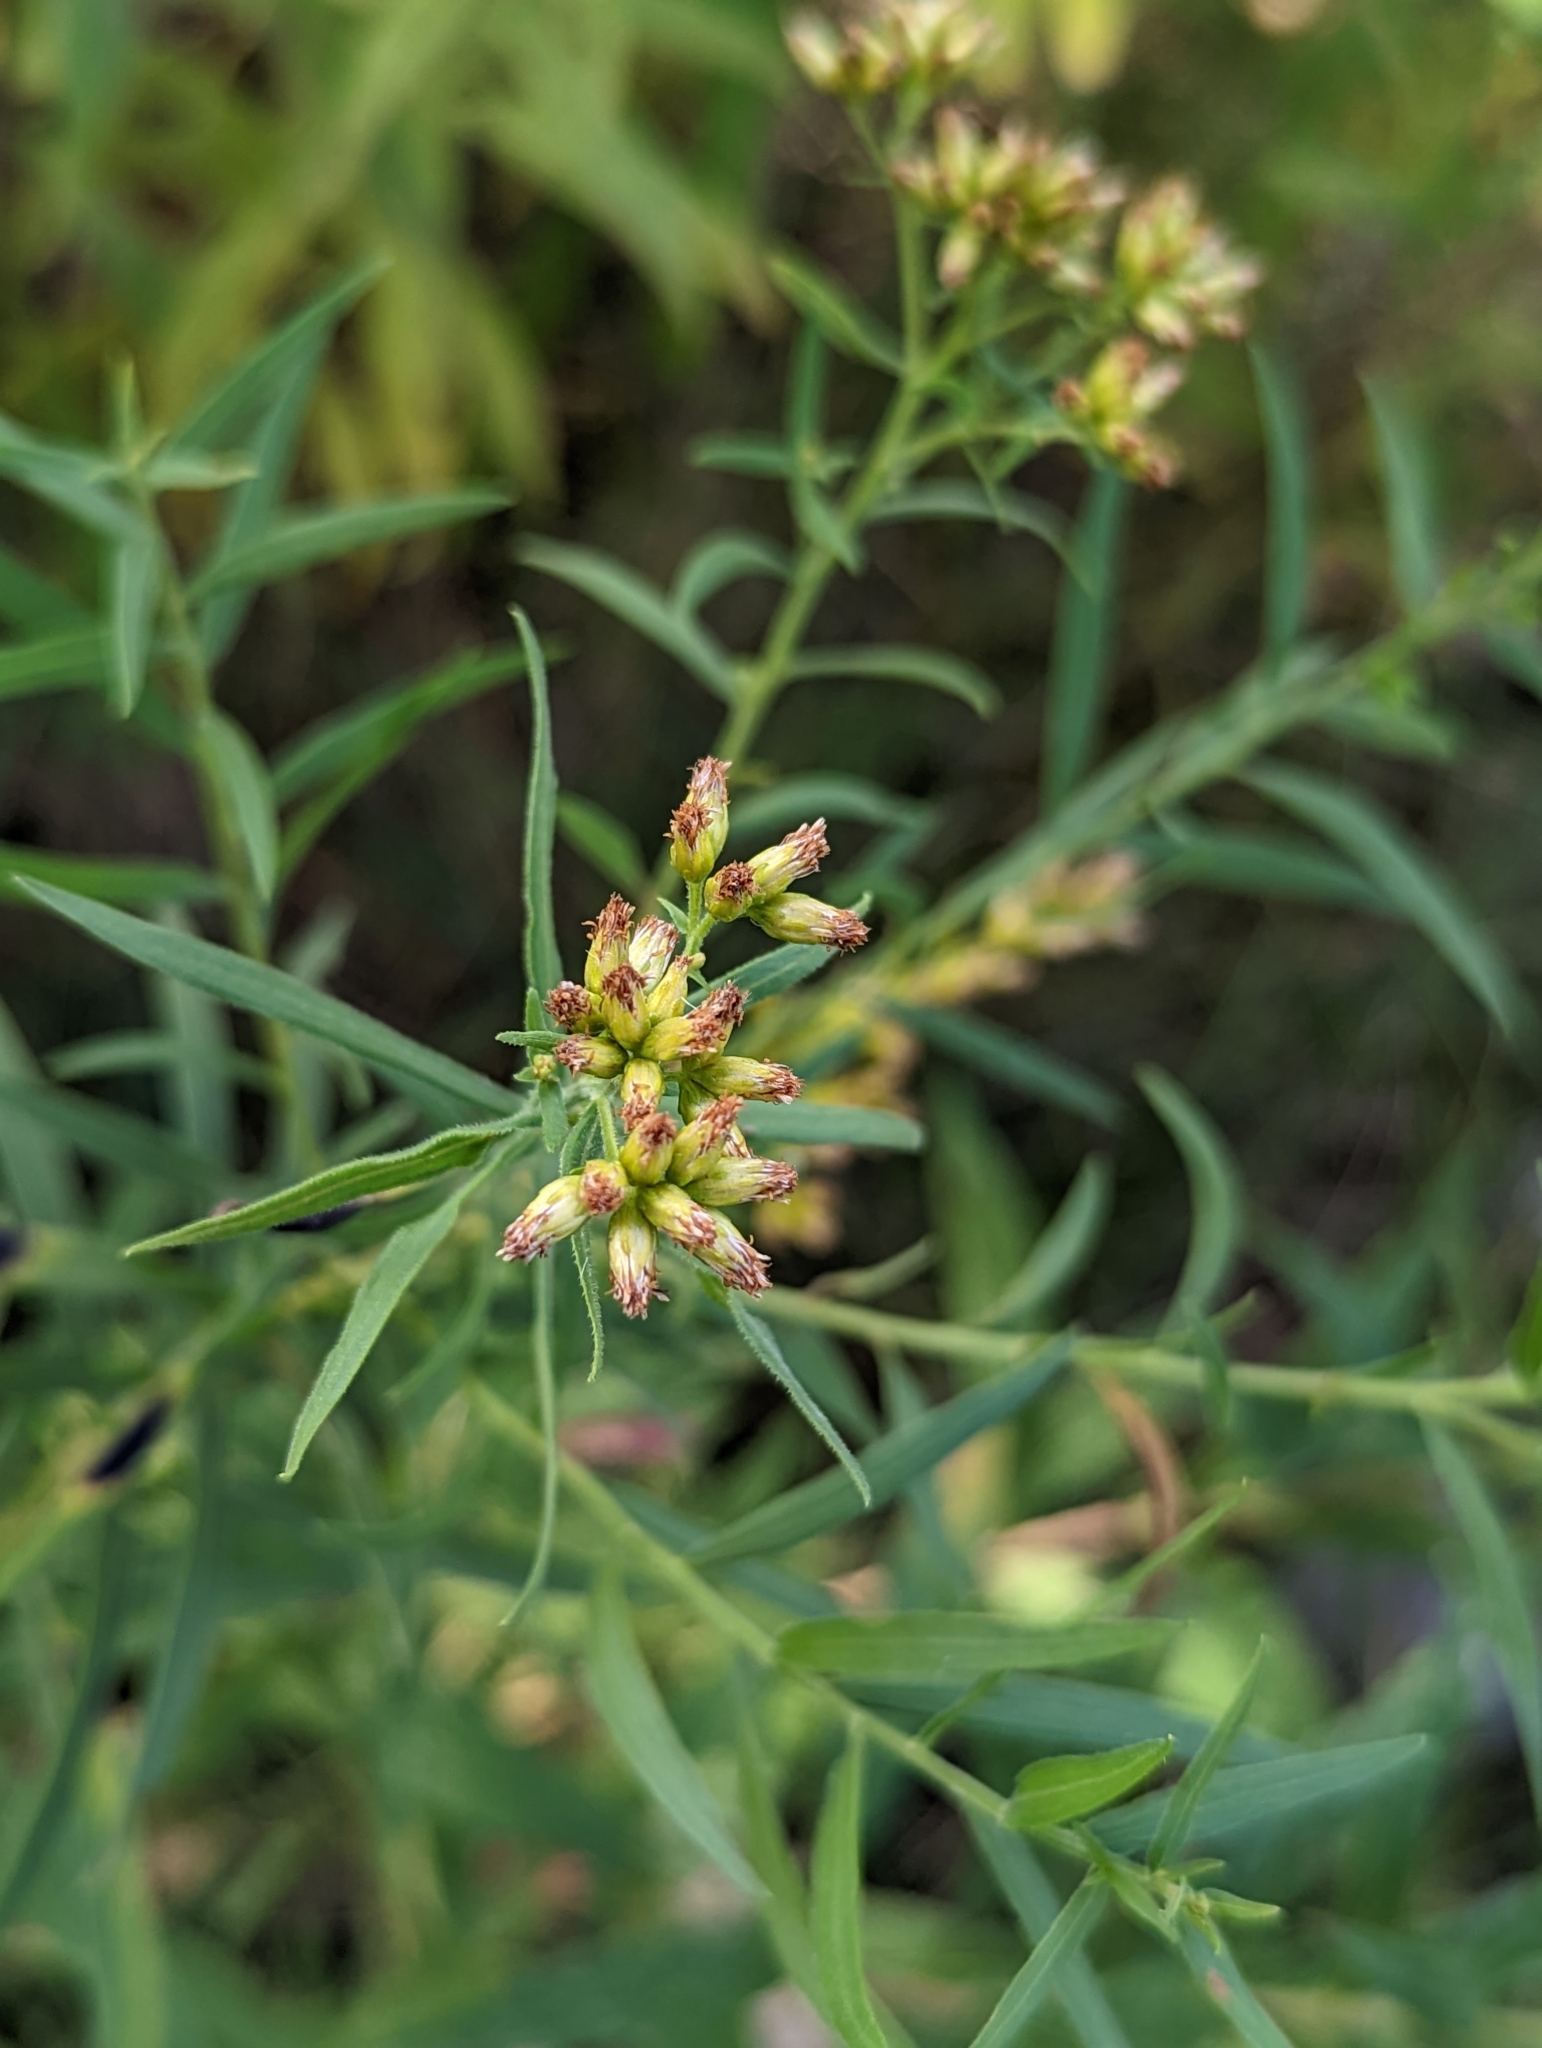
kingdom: Plantae
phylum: Tracheophyta
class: Magnoliopsida
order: Asterales
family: Asteraceae
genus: Euthamia
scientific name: Euthamia graminifolia
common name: Common goldentop
